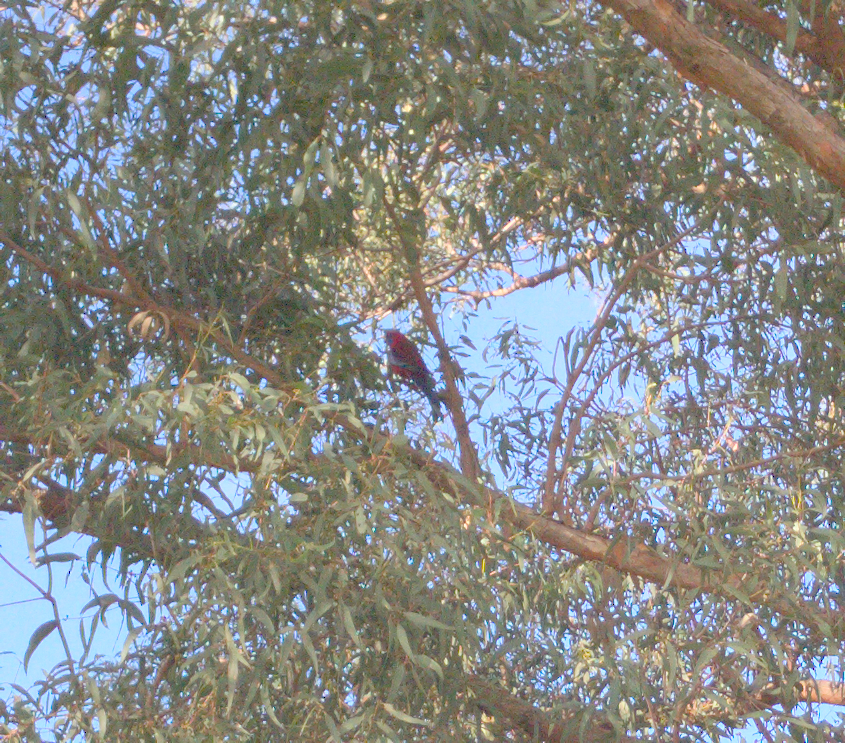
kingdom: Animalia
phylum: Chordata
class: Aves
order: Psittaciformes
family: Psittacidae
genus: Platycercus
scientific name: Platycercus elegans
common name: Crimson rosella
